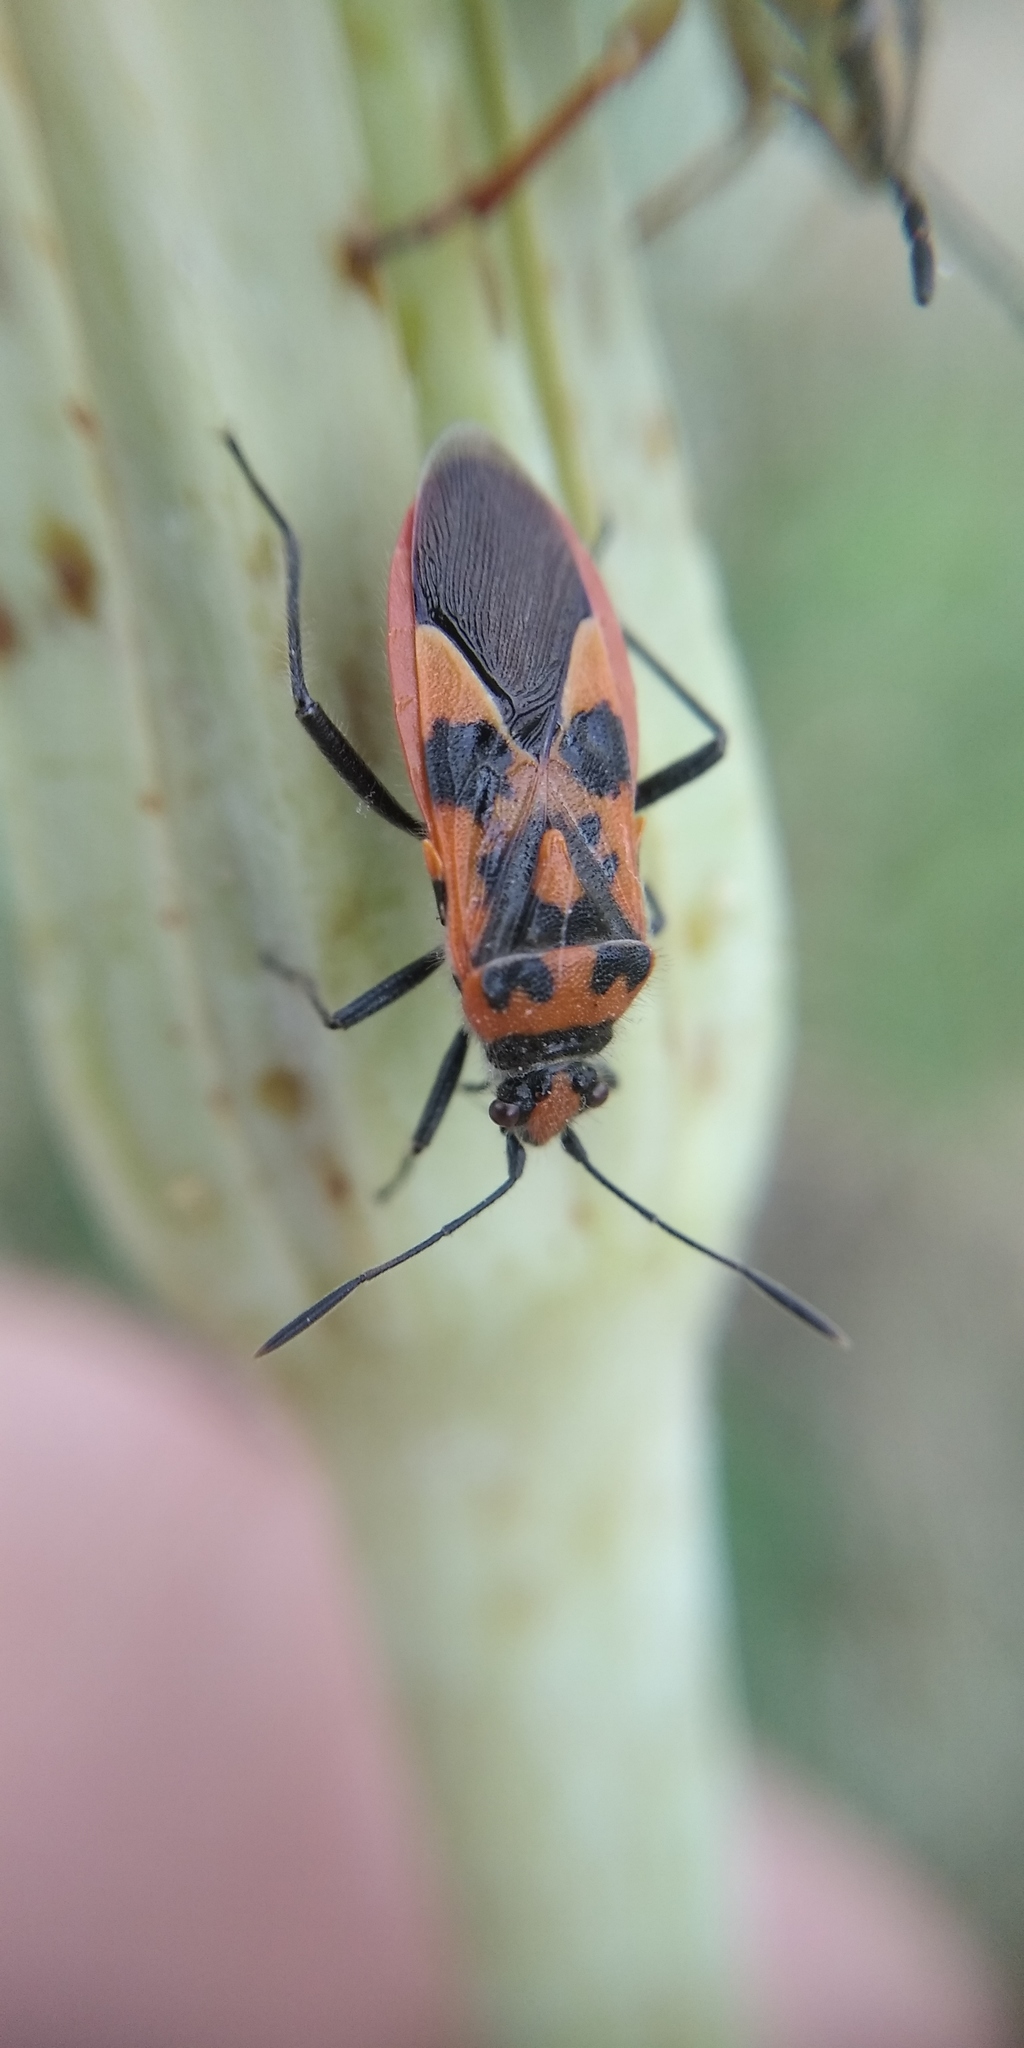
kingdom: Animalia
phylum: Arthropoda
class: Insecta
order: Hemiptera
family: Rhopalidae
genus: Corizus
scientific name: Corizus hyoscyami
